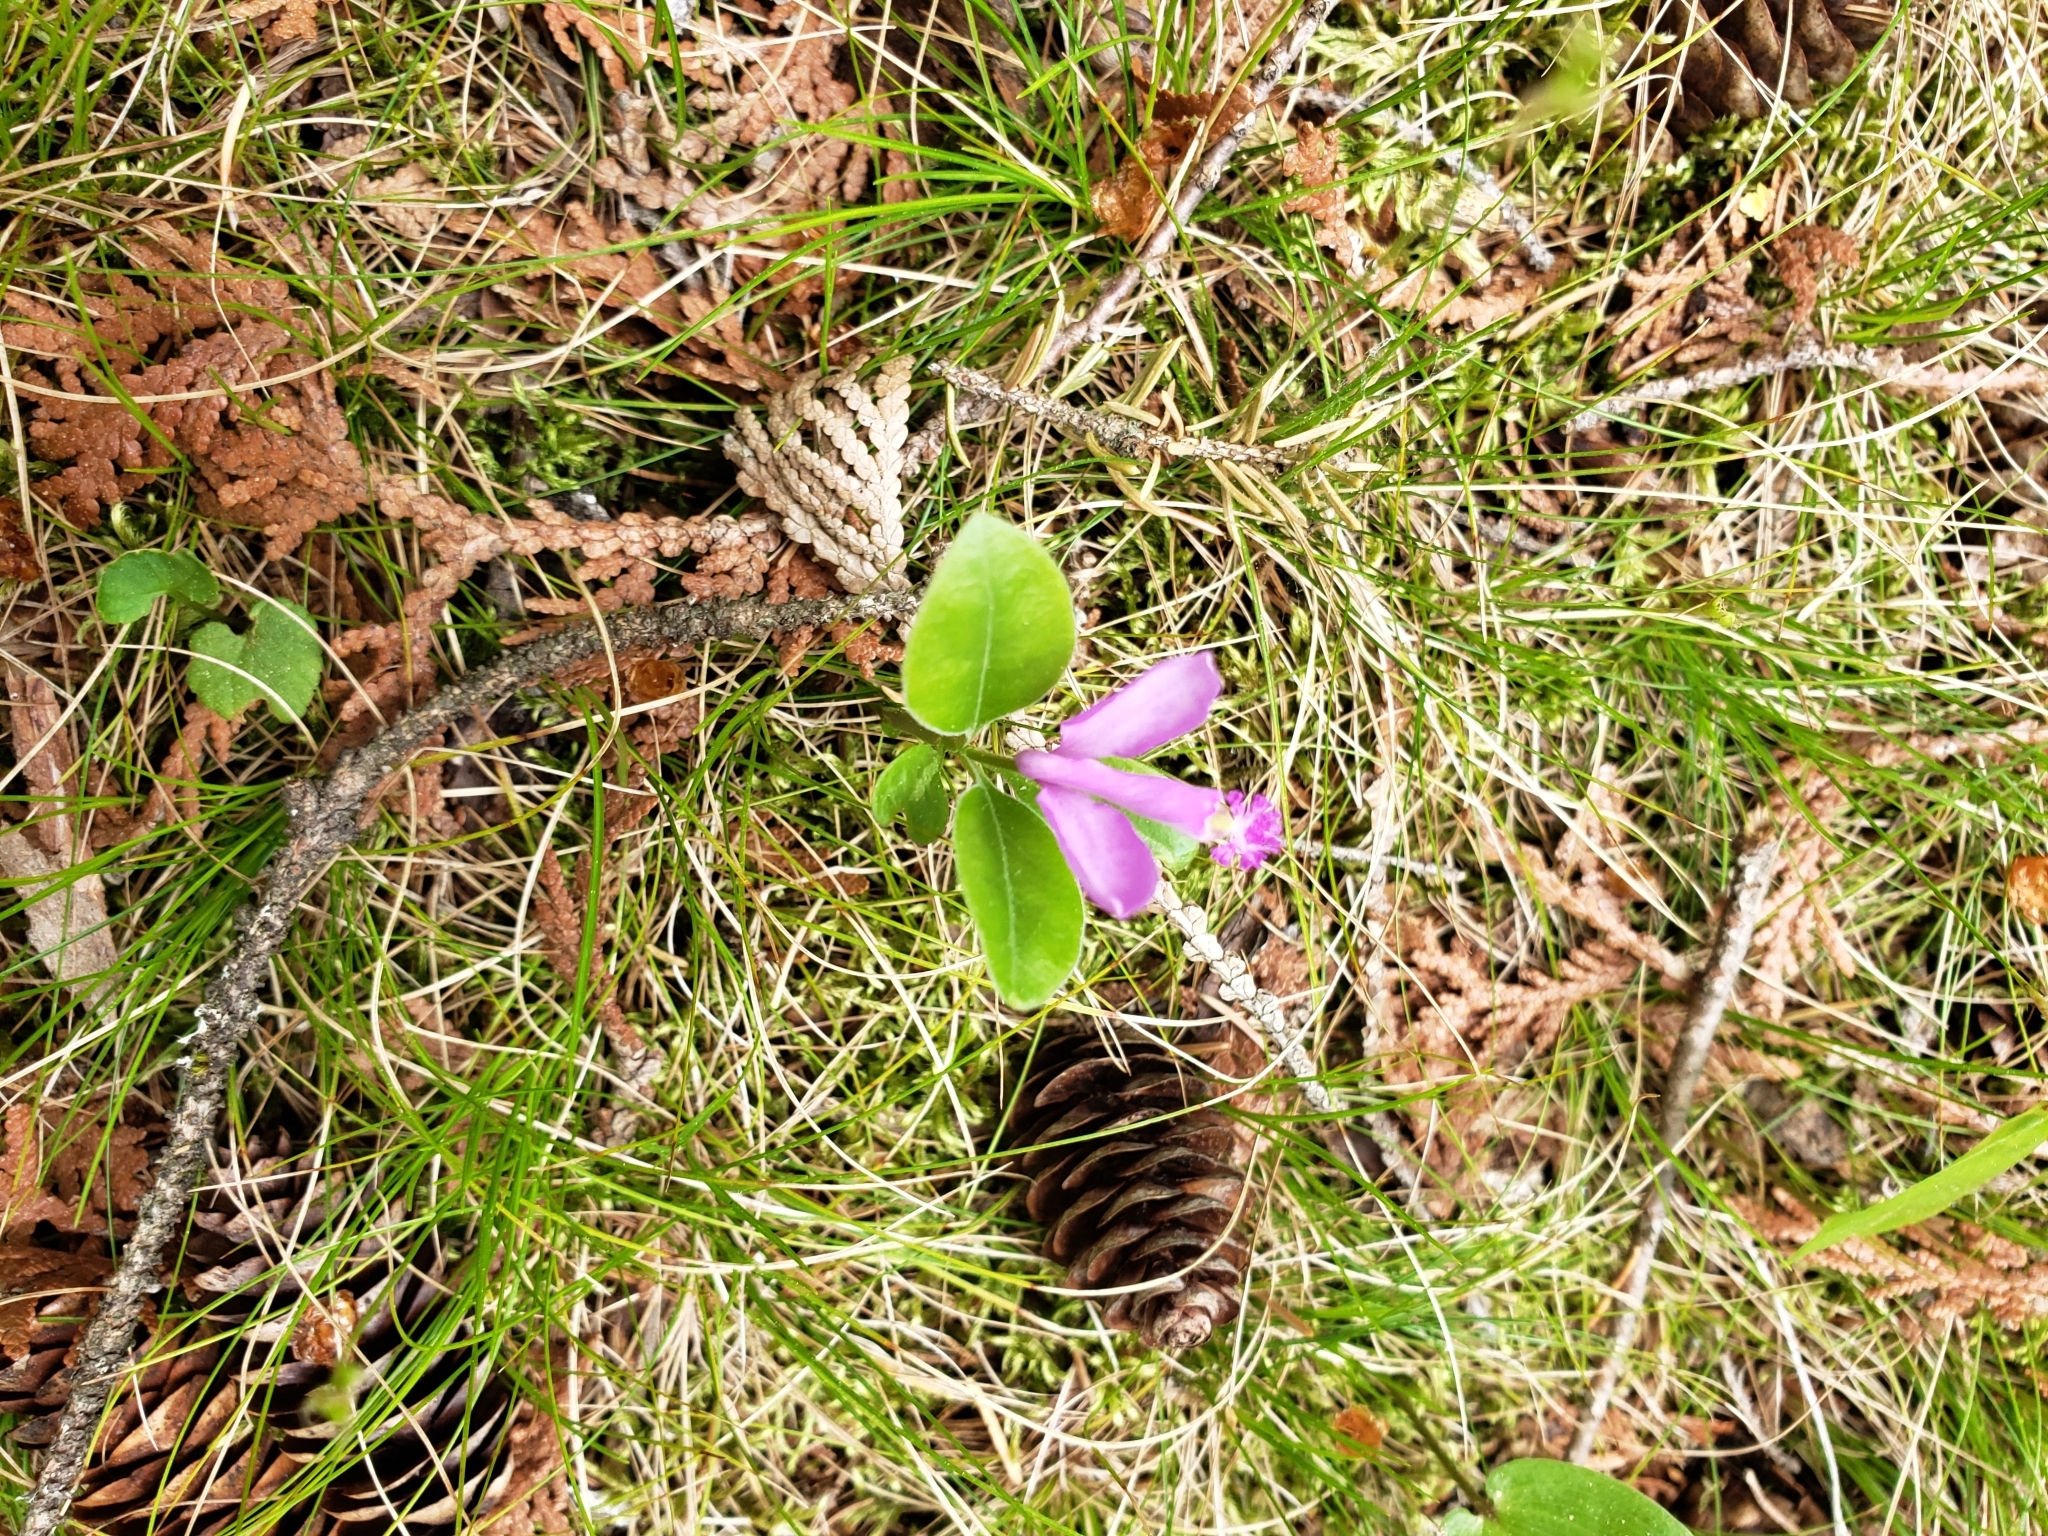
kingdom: Plantae
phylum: Tracheophyta
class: Magnoliopsida
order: Fabales
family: Polygalaceae
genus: Polygaloides
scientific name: Polygaloides paucifolia
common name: Bird-on-the-wing
